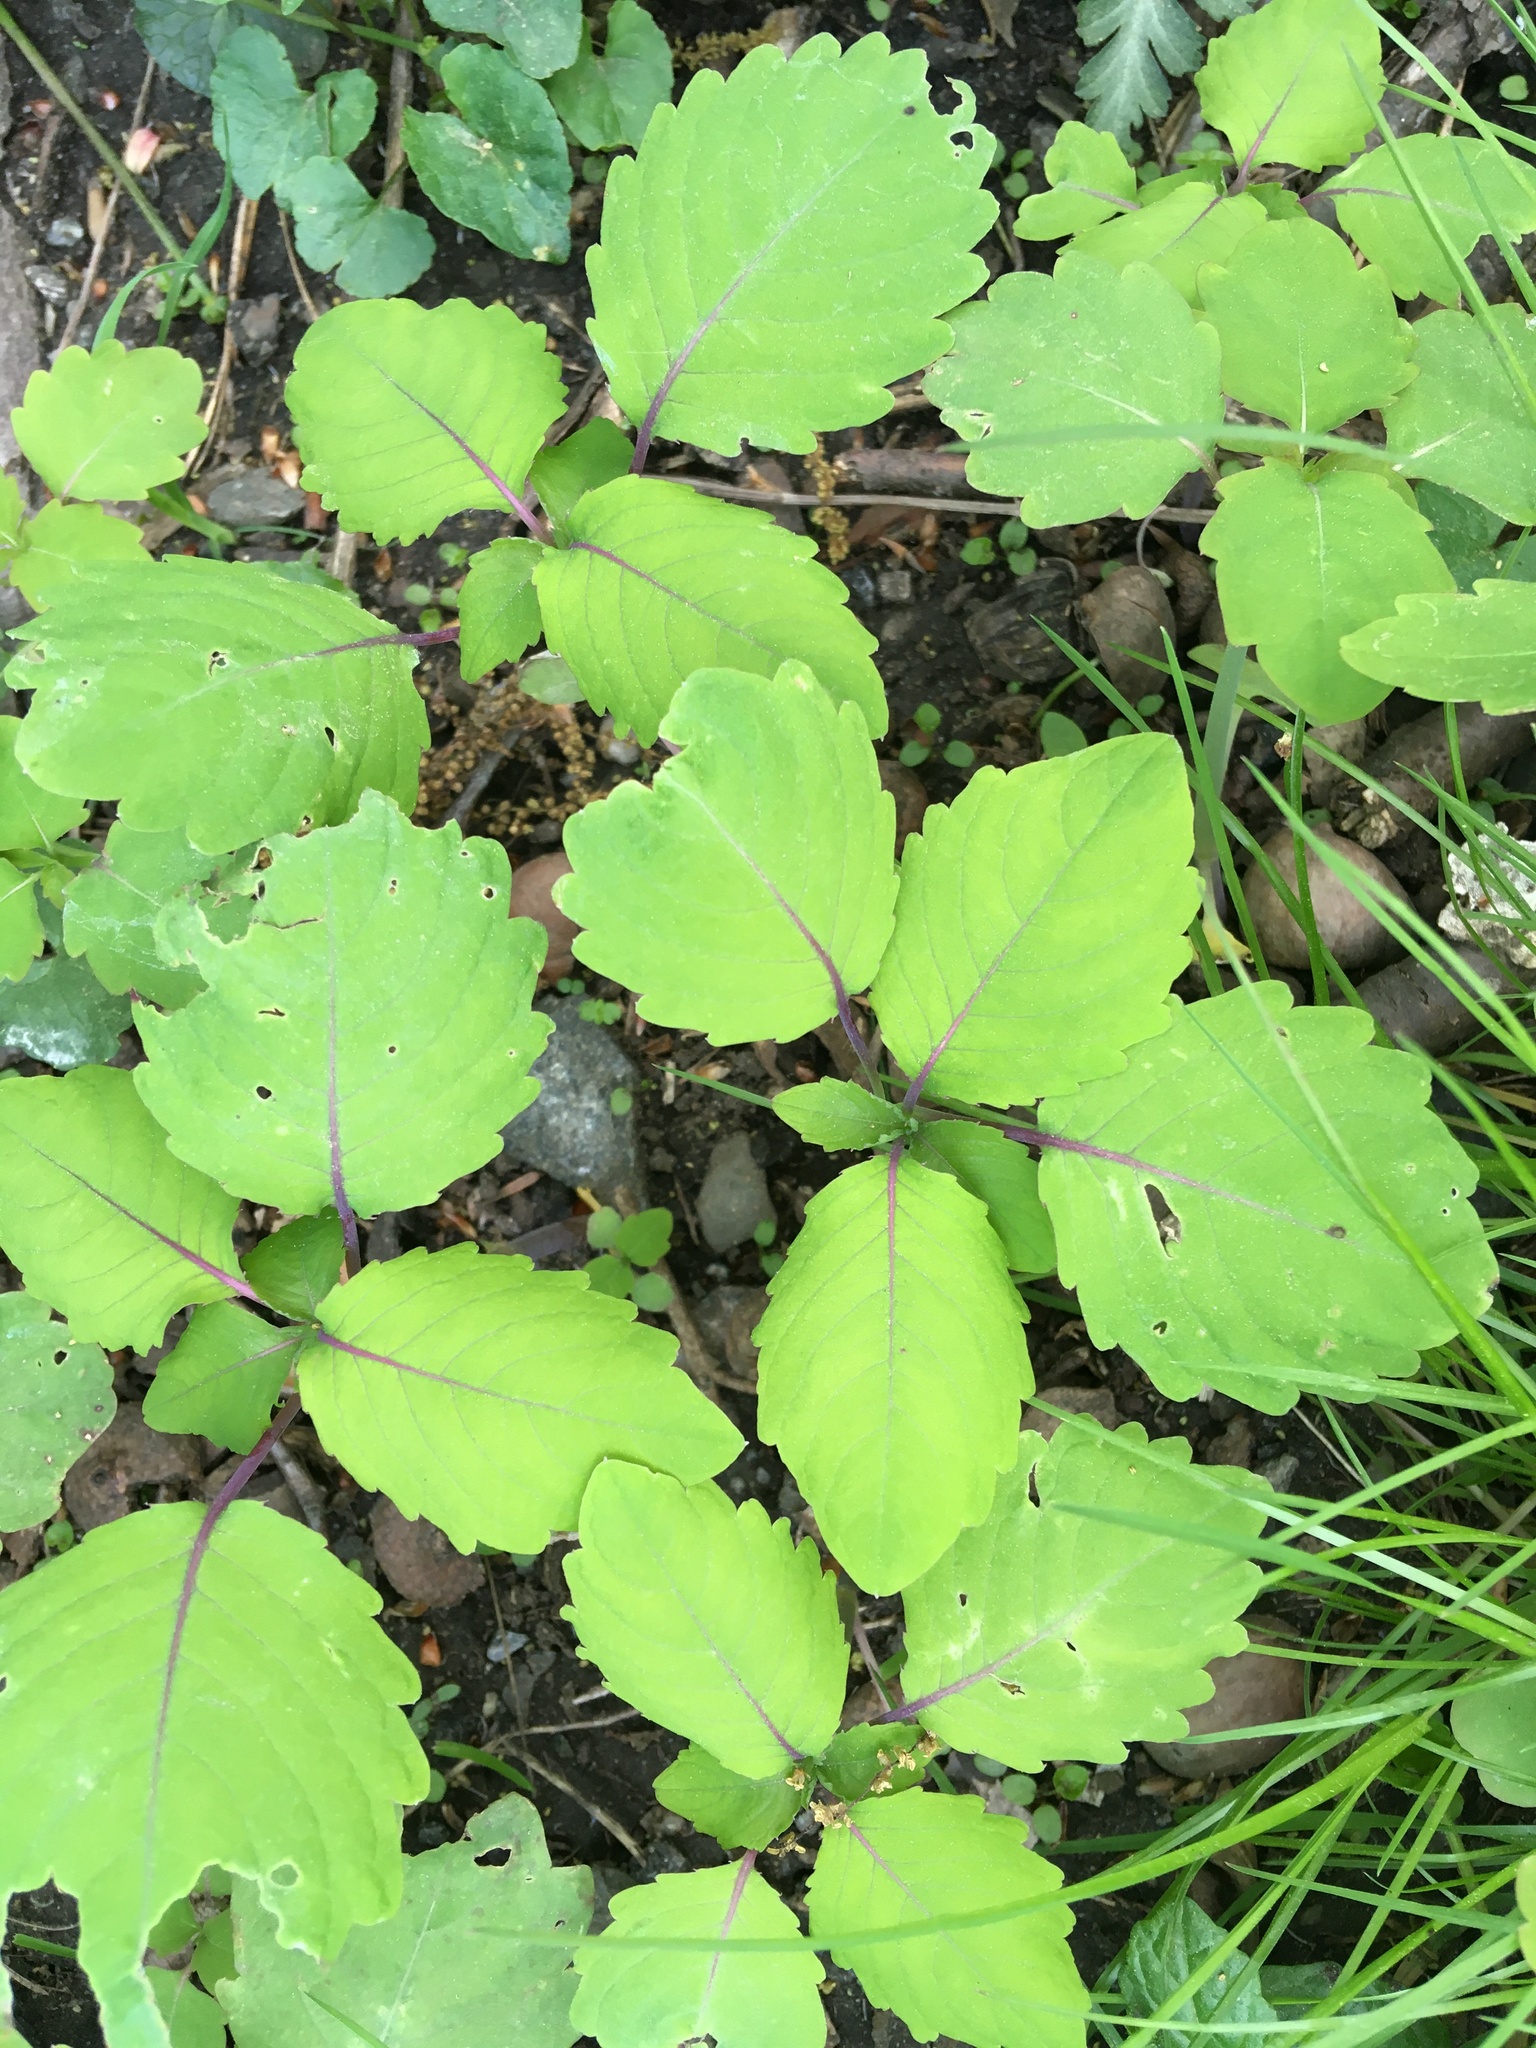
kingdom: Plantae
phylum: Tracheophyta
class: Magnoliopsida
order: Ericales
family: Balsaminaceae
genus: Impatiens
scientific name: Impatiens capensis
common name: Orange balsam
